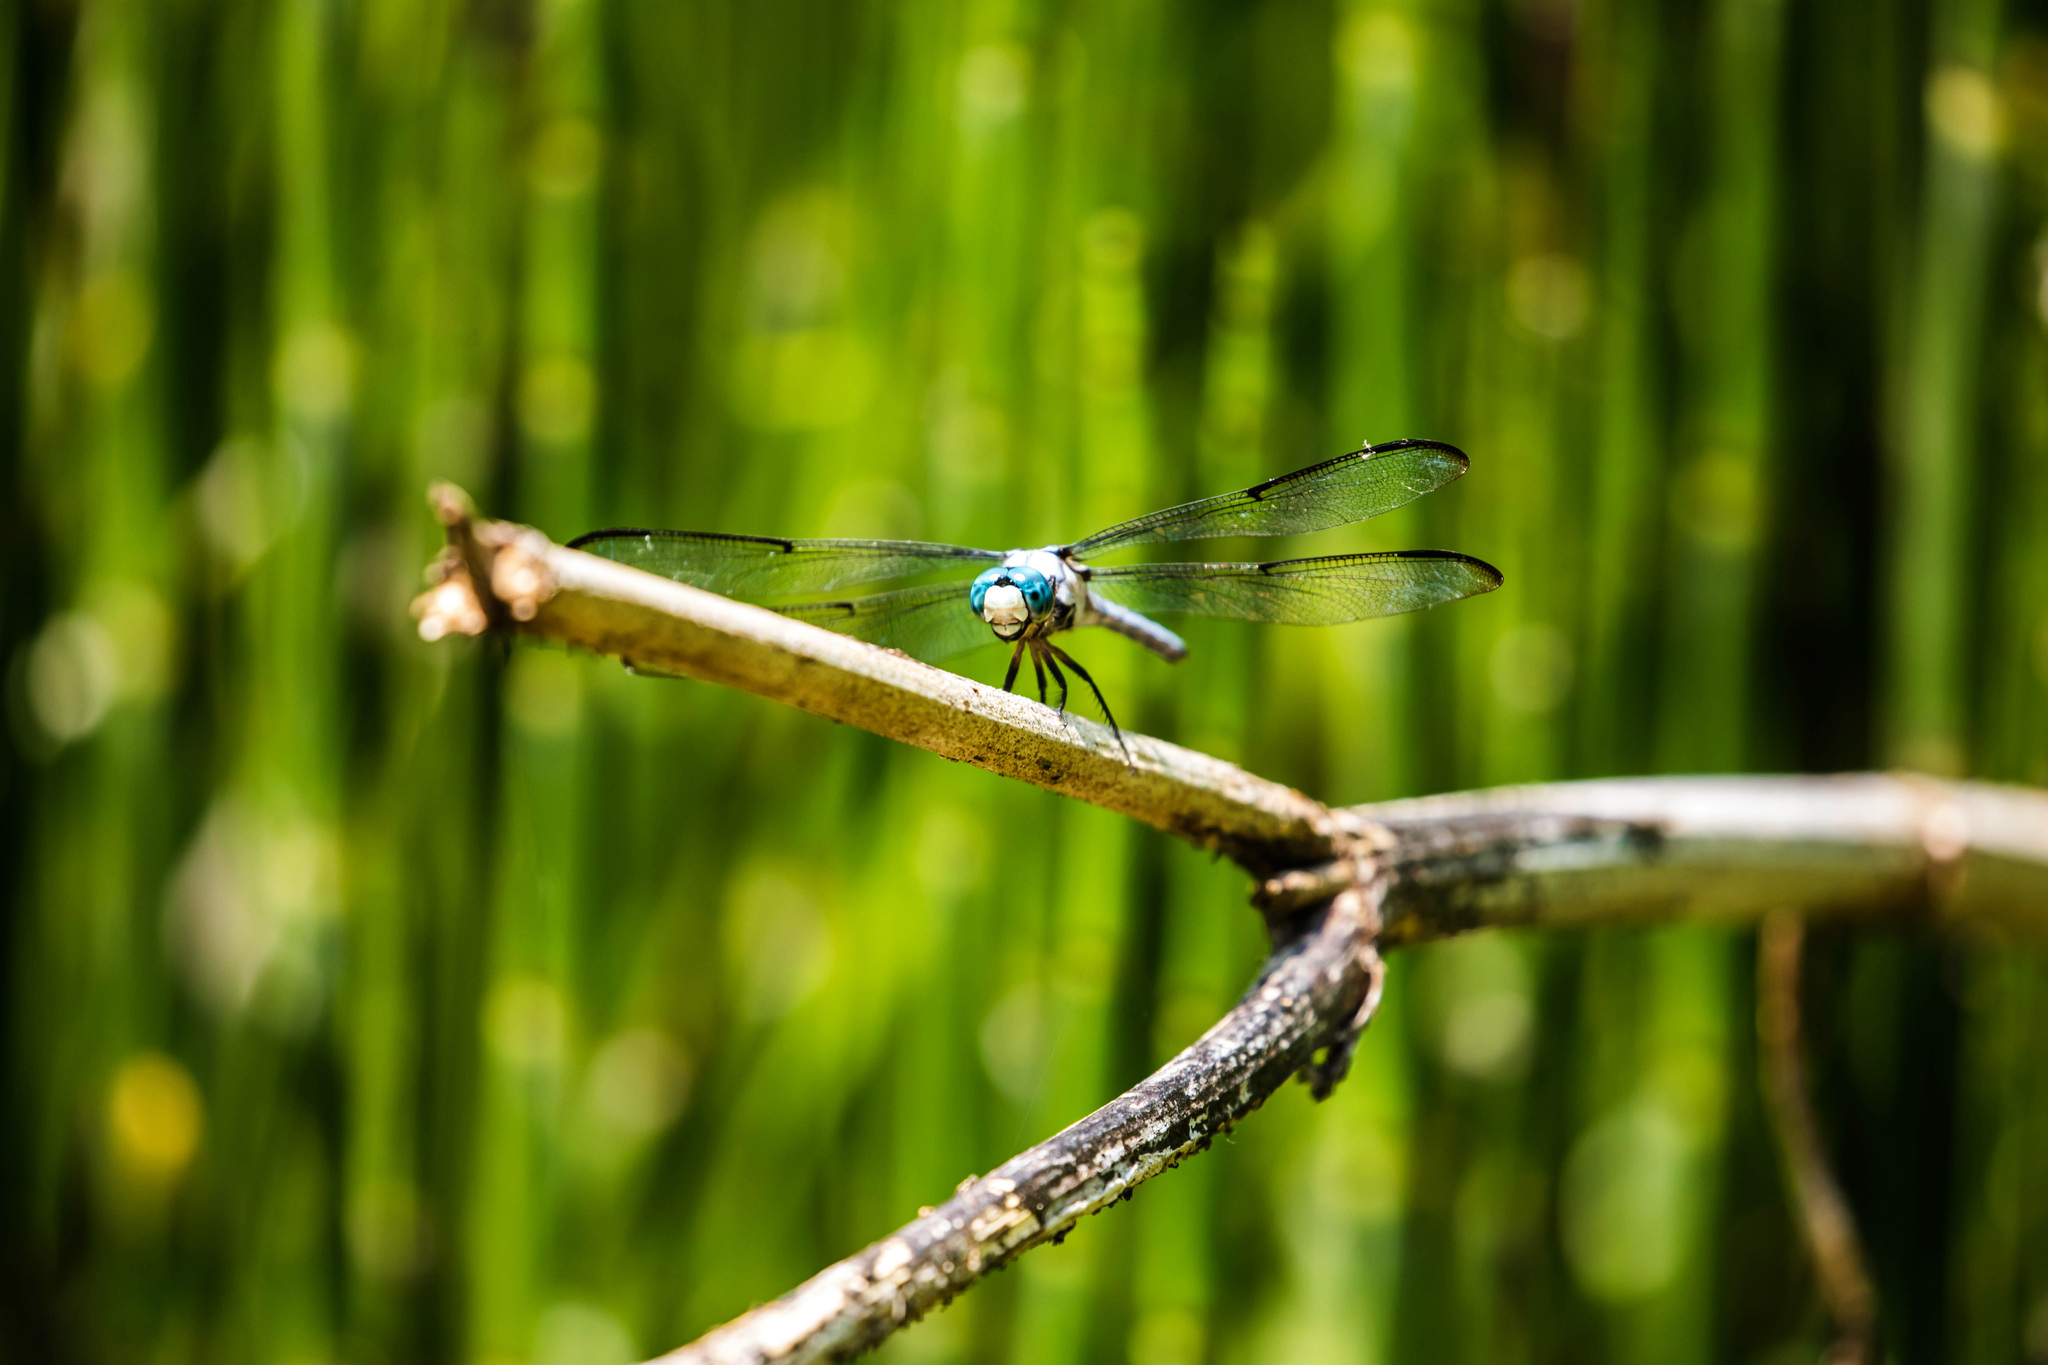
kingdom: Animalia
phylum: Arthropoda
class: Insecta
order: Odonata
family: Libellulidae
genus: Libellula
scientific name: Libellula vibrans
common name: Great blue skimmer
